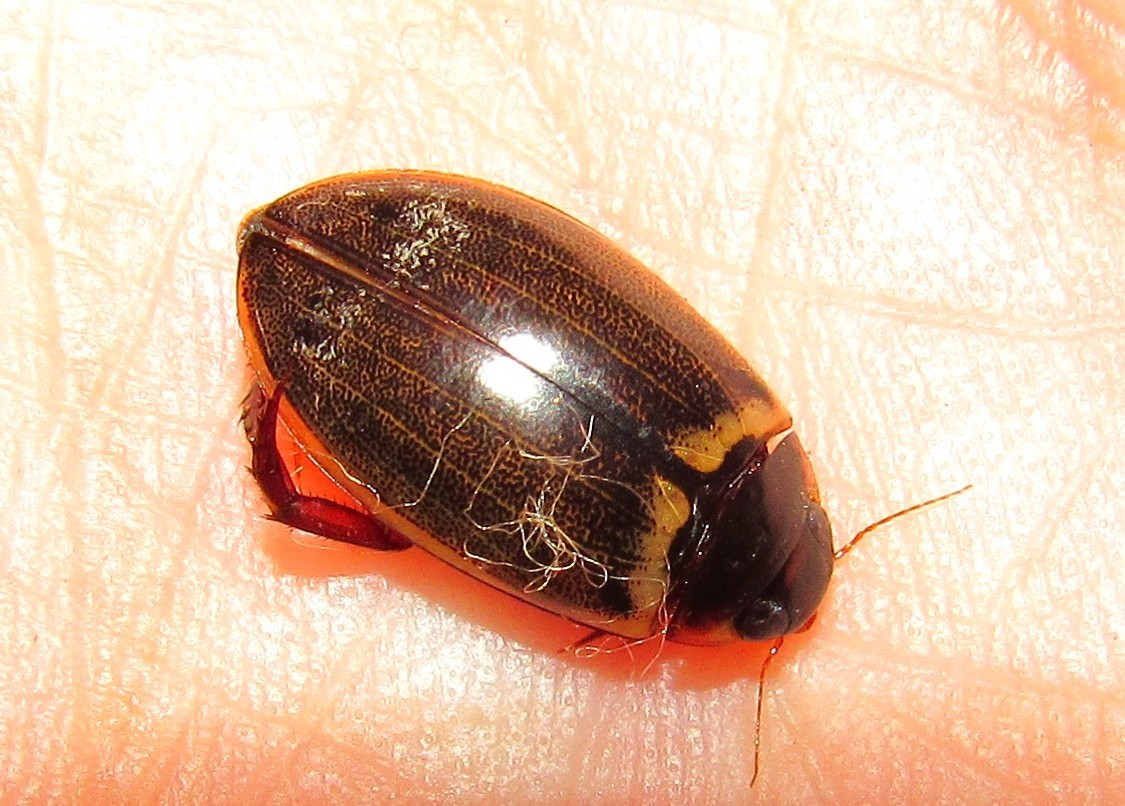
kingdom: Animalia
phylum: Arthropoda
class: Insecta
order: Coleoptera
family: Dytiscidae
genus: Meridiorhantus
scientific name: Meridiorhantus calidus
